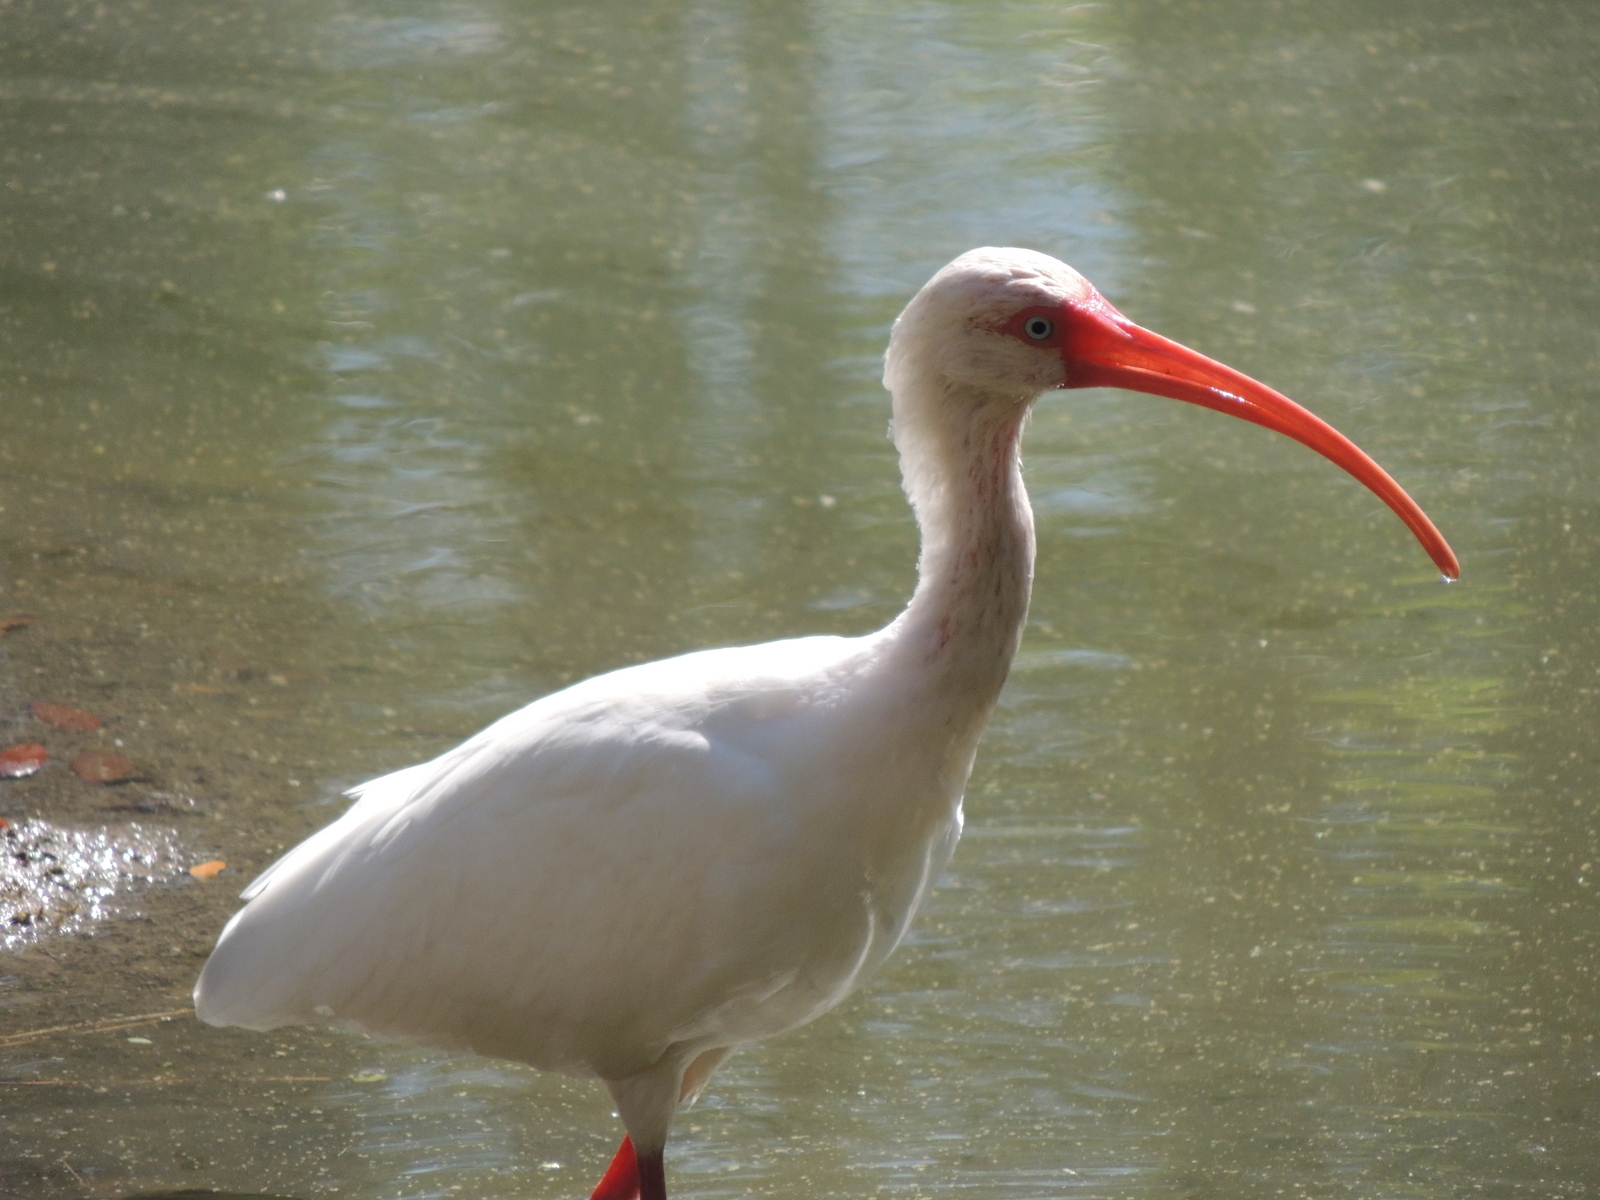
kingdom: Animalia
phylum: Chordata
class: Aves
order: Pelecaniformes
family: Threskiornithidae
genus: Eudocimus
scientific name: Eudocimus albus
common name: White ibis
